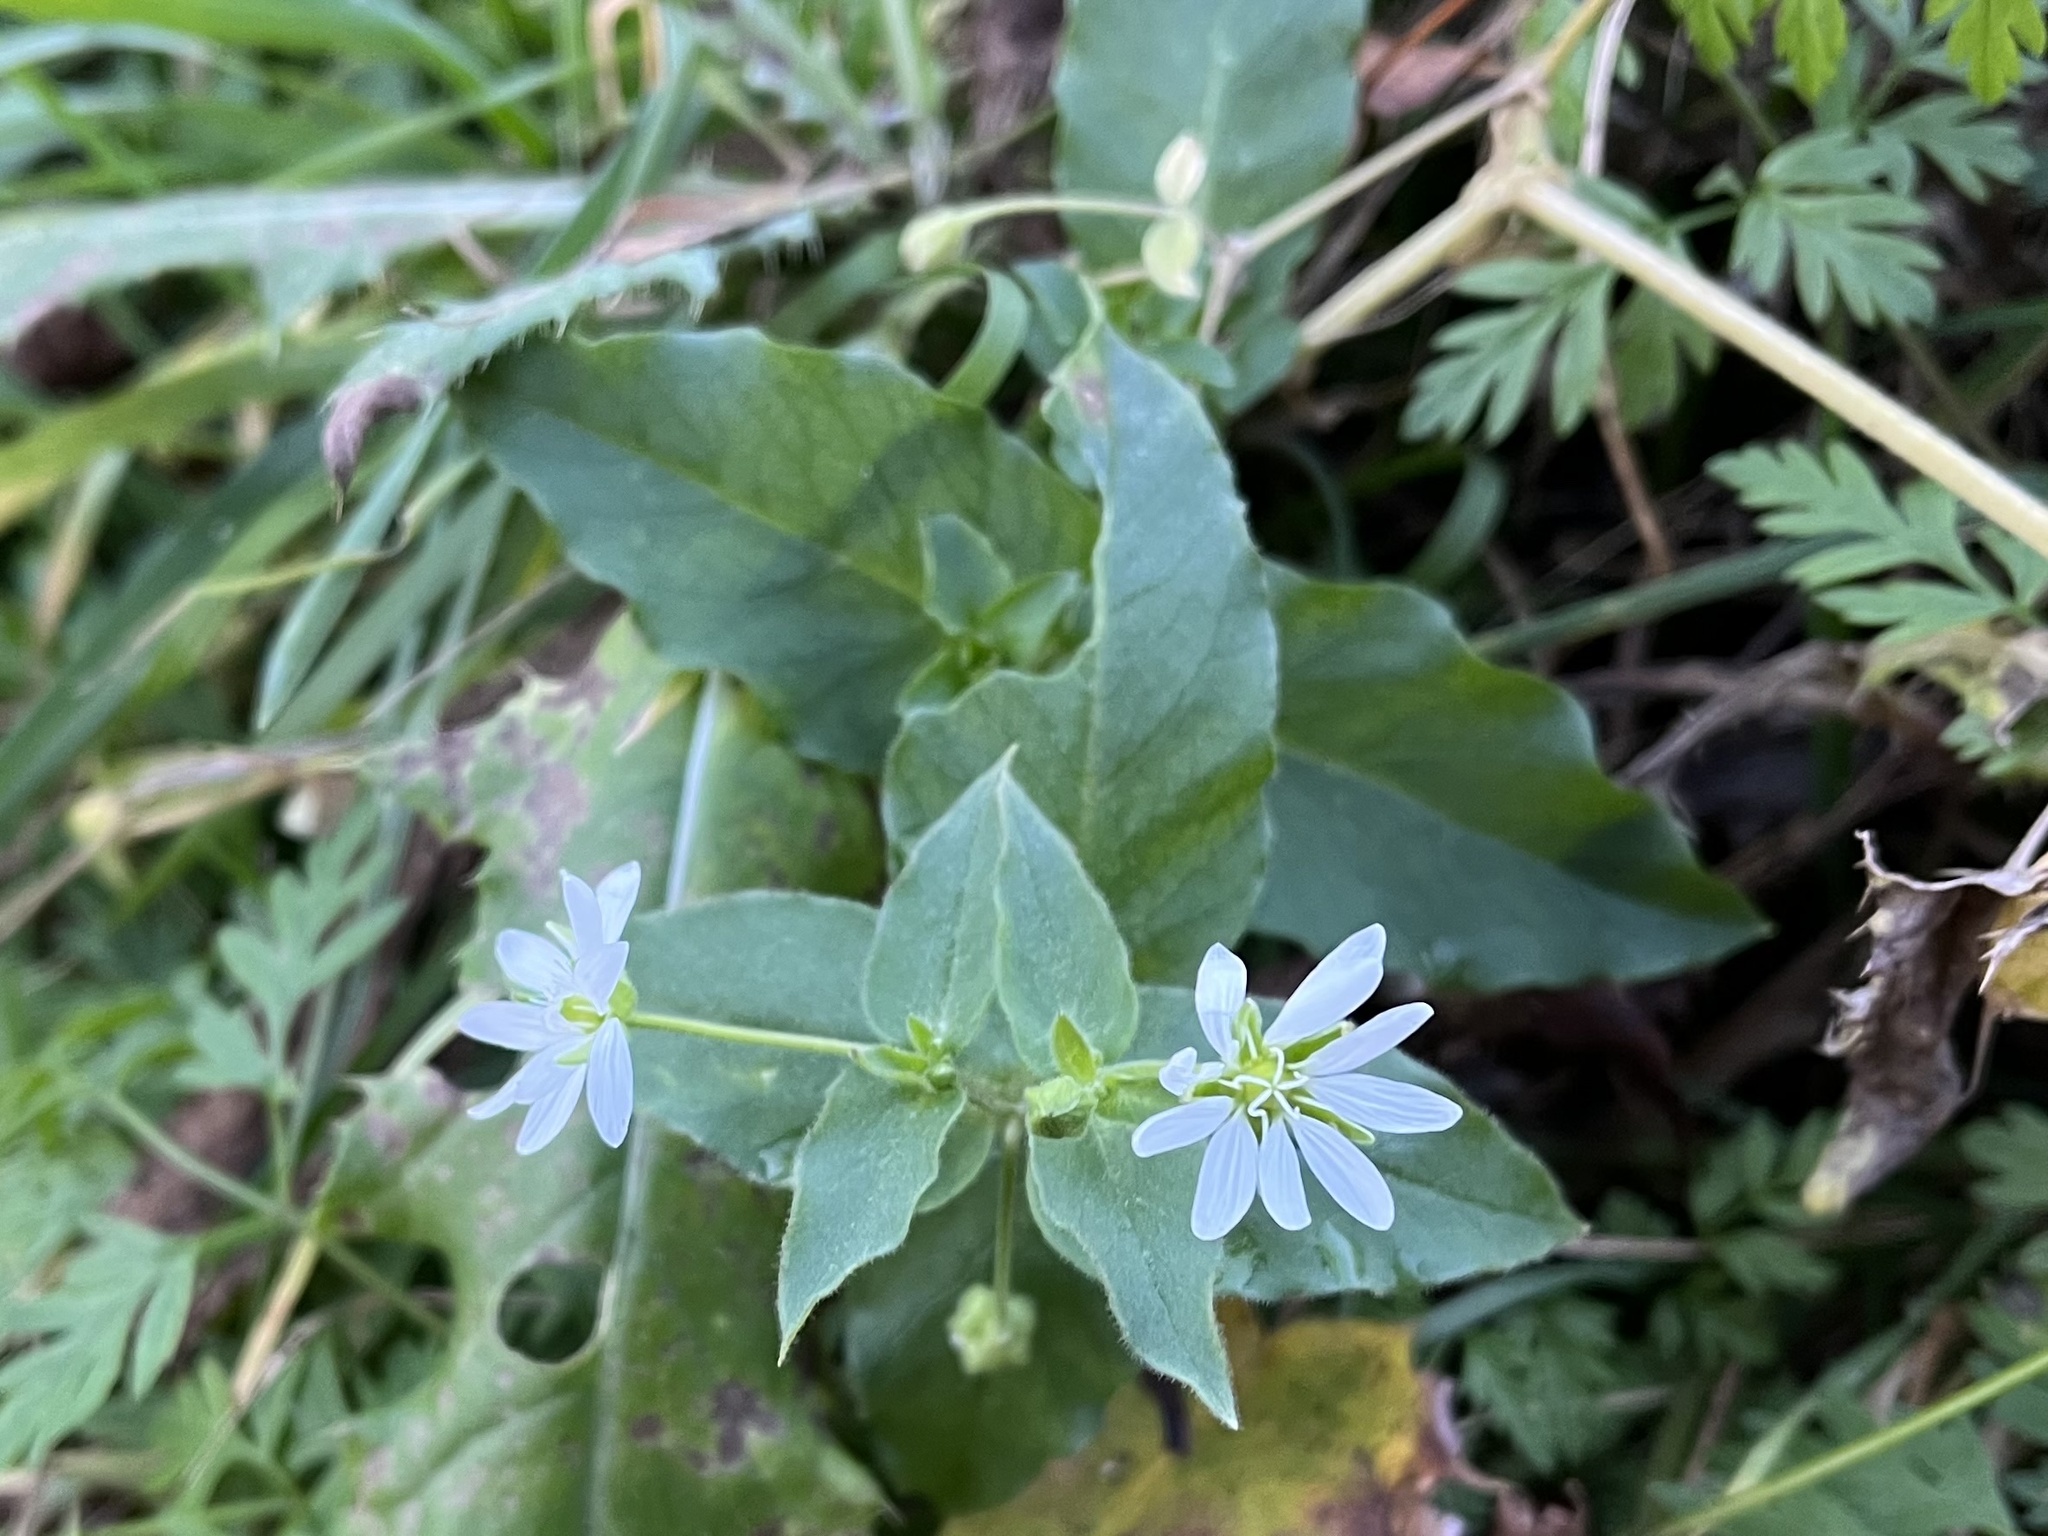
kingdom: Plantae
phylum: Tracheophyta
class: Magnoliopsida
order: Caryophyllales
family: Caryophyllaceae
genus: Stellaria
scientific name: Stellaria aquatica
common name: Water chickweed
